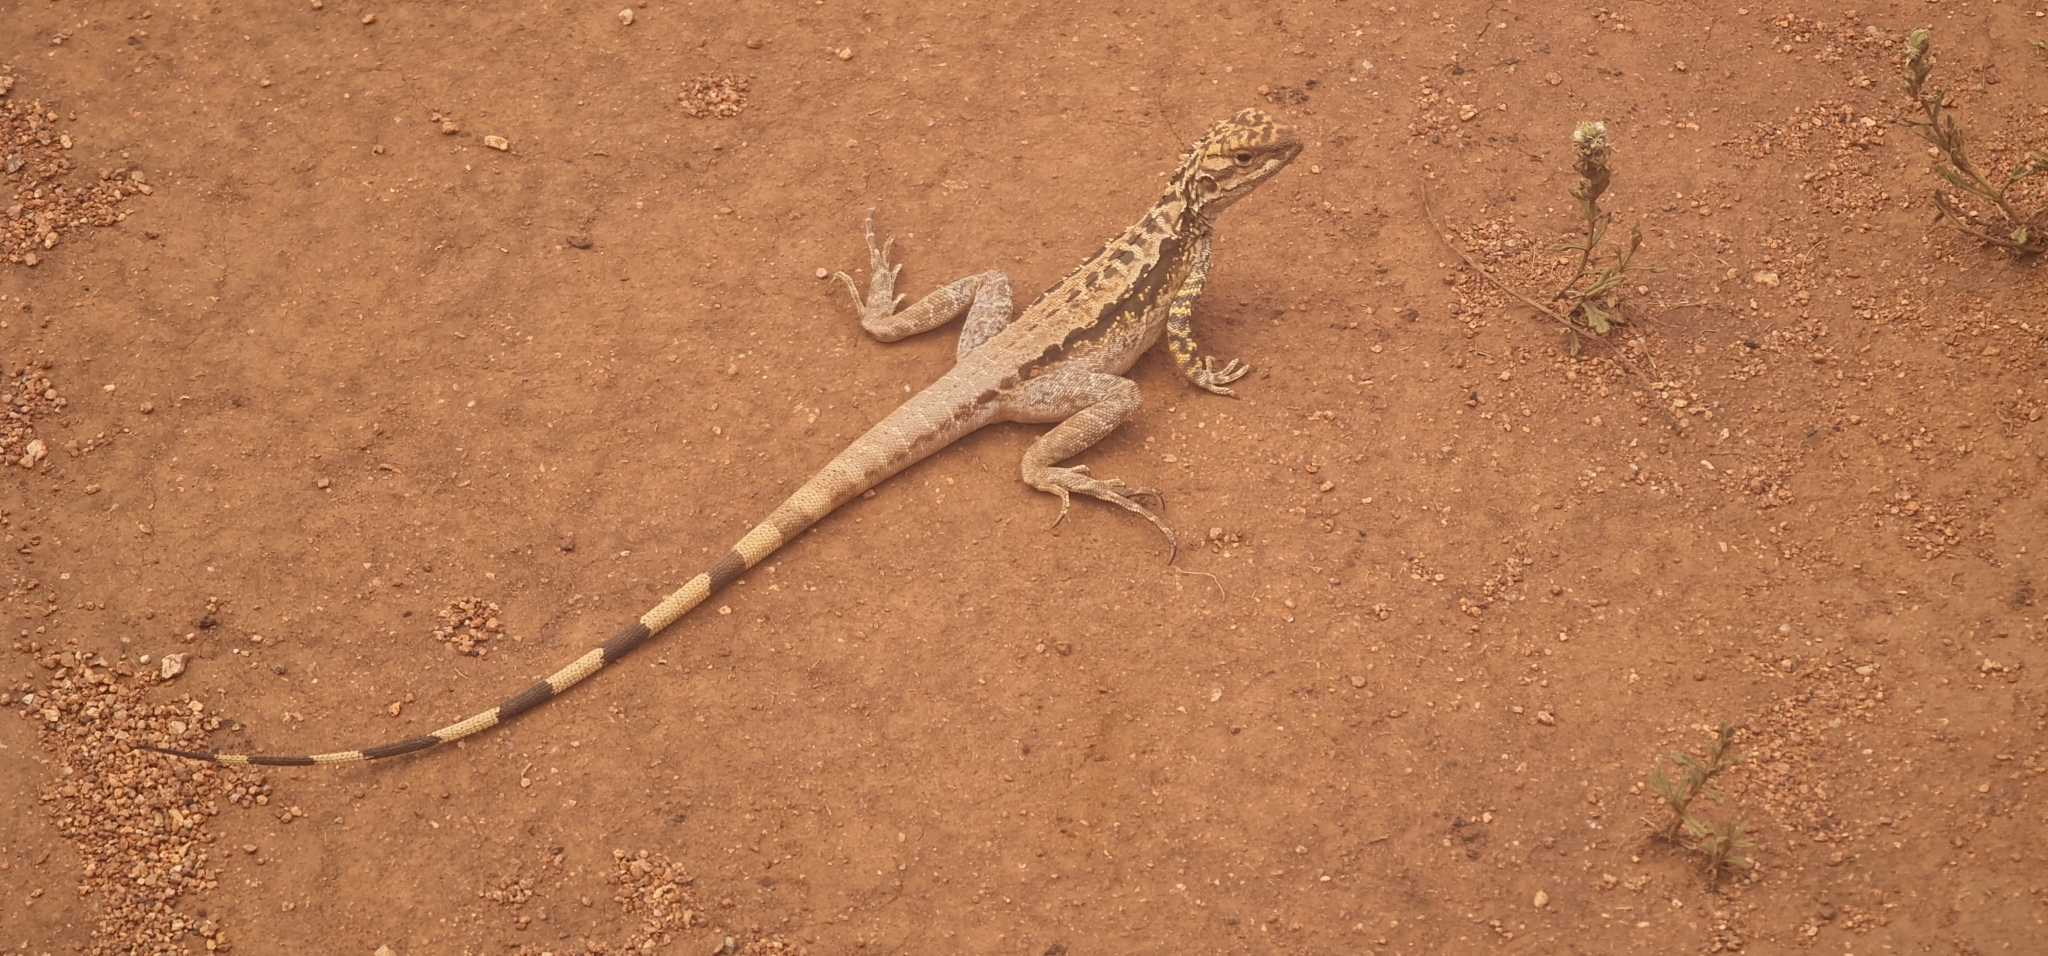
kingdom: Animalia
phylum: Chordata
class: Squamata
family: Agamidae
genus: Ctenophorus
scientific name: Ctenophorus cristatus
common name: Crested dragon
